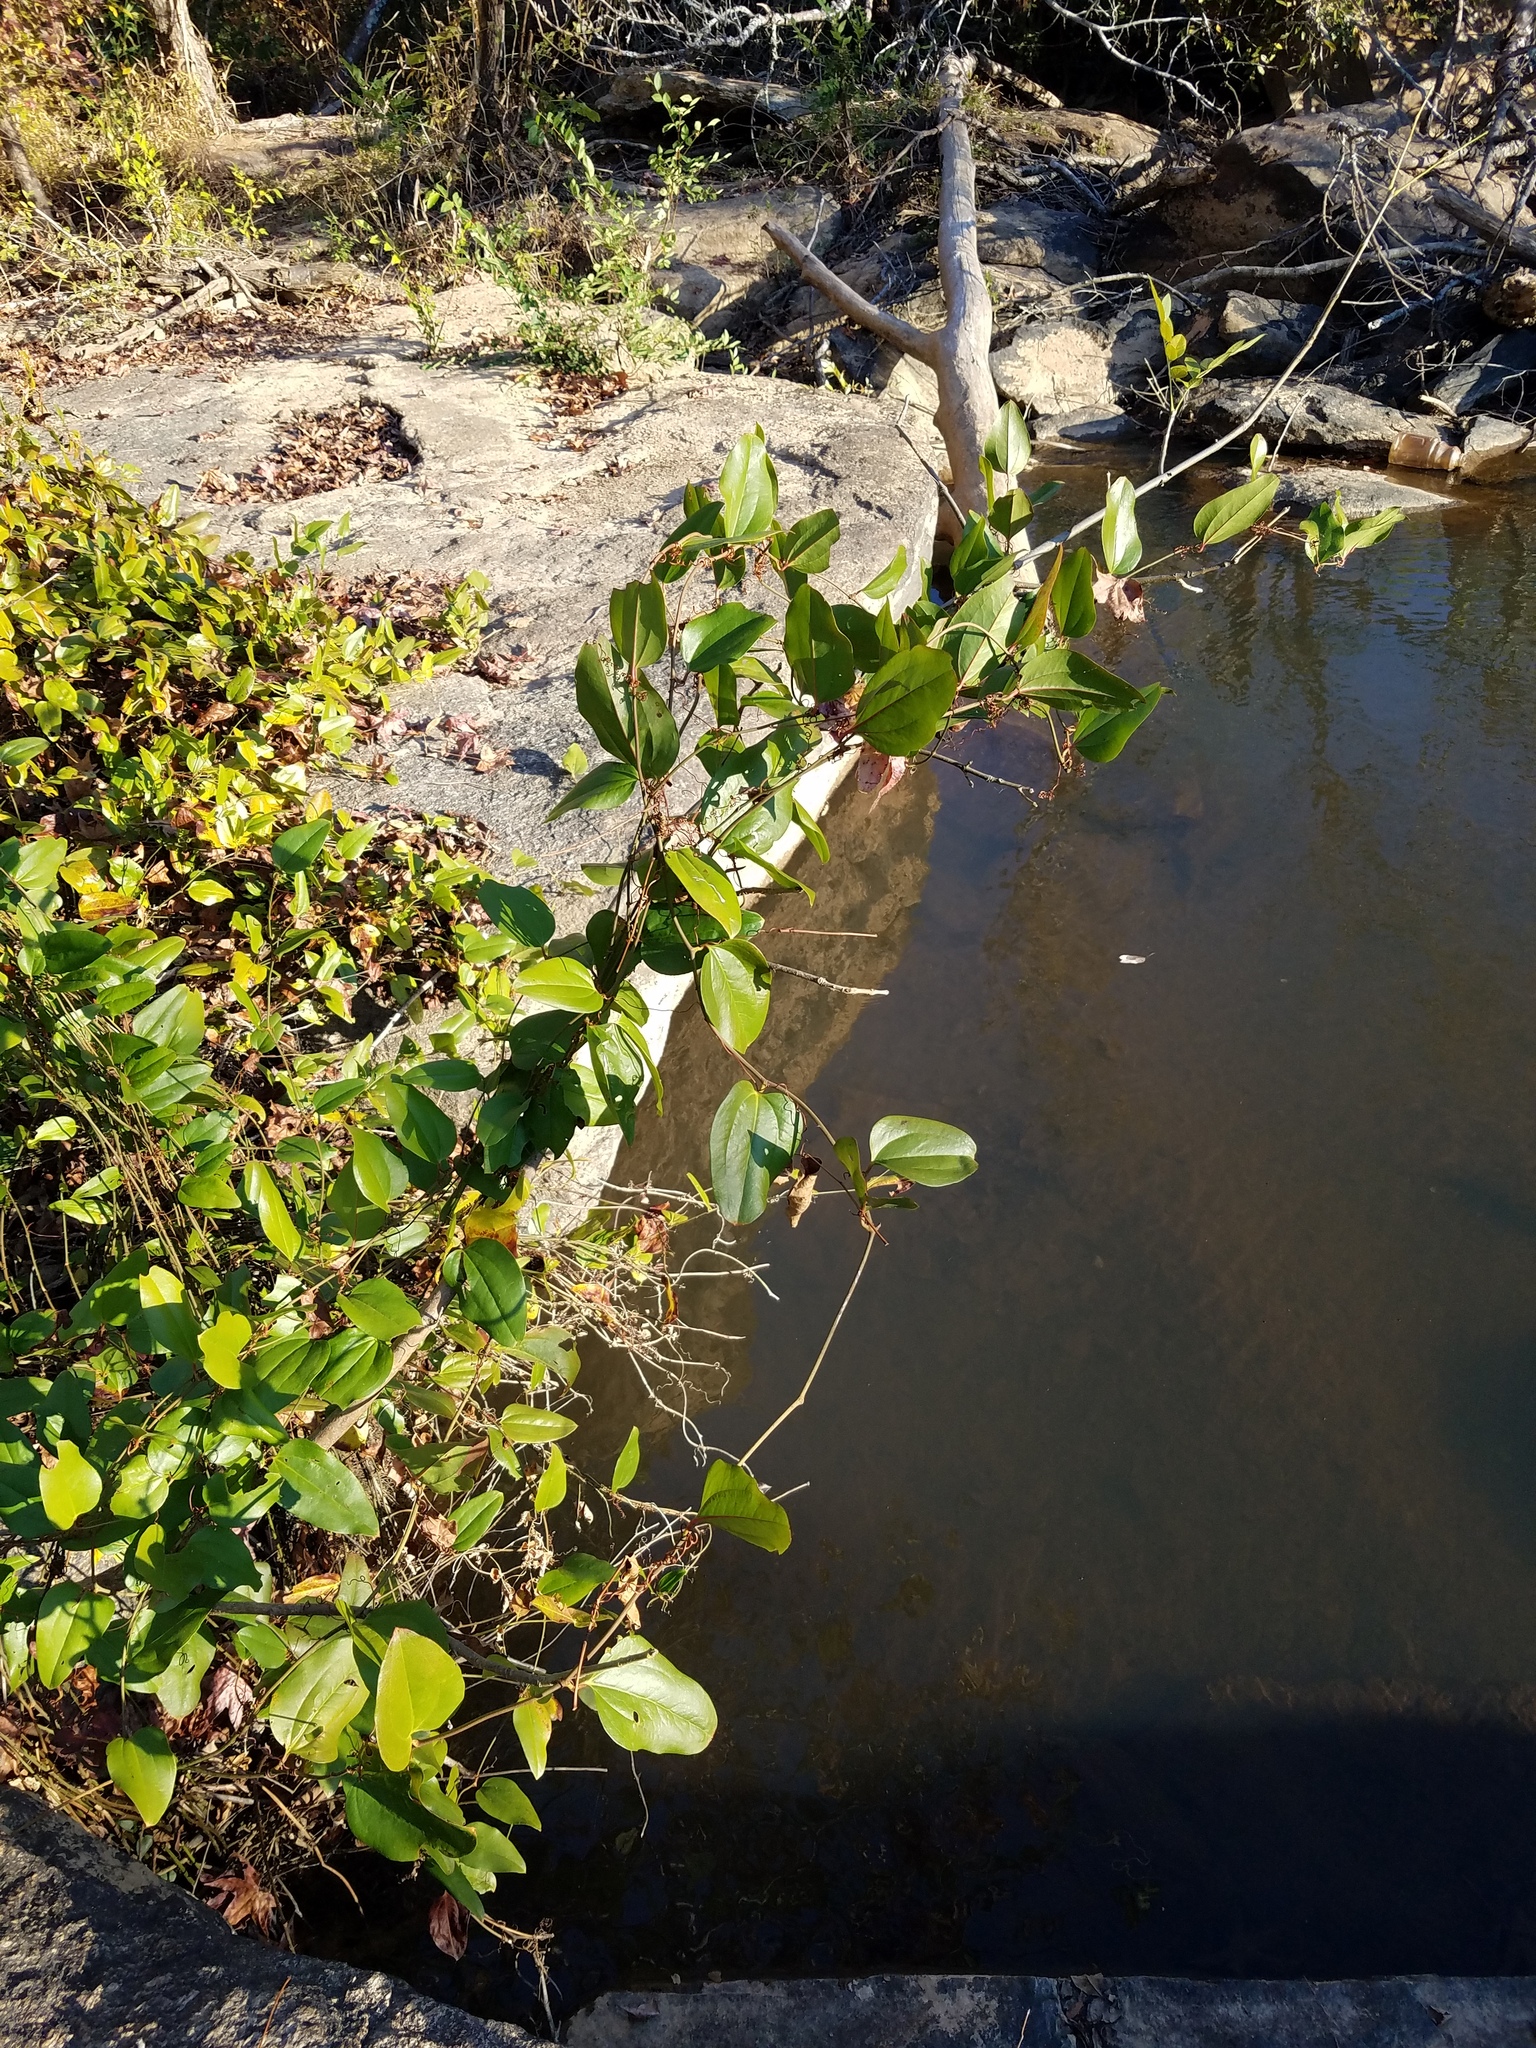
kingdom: Plantae
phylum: Tracheophyta
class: Liliopsida
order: Liliales
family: Smilacaceae
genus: Smilax
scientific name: Smilax walteri
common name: Coral greenbrier
